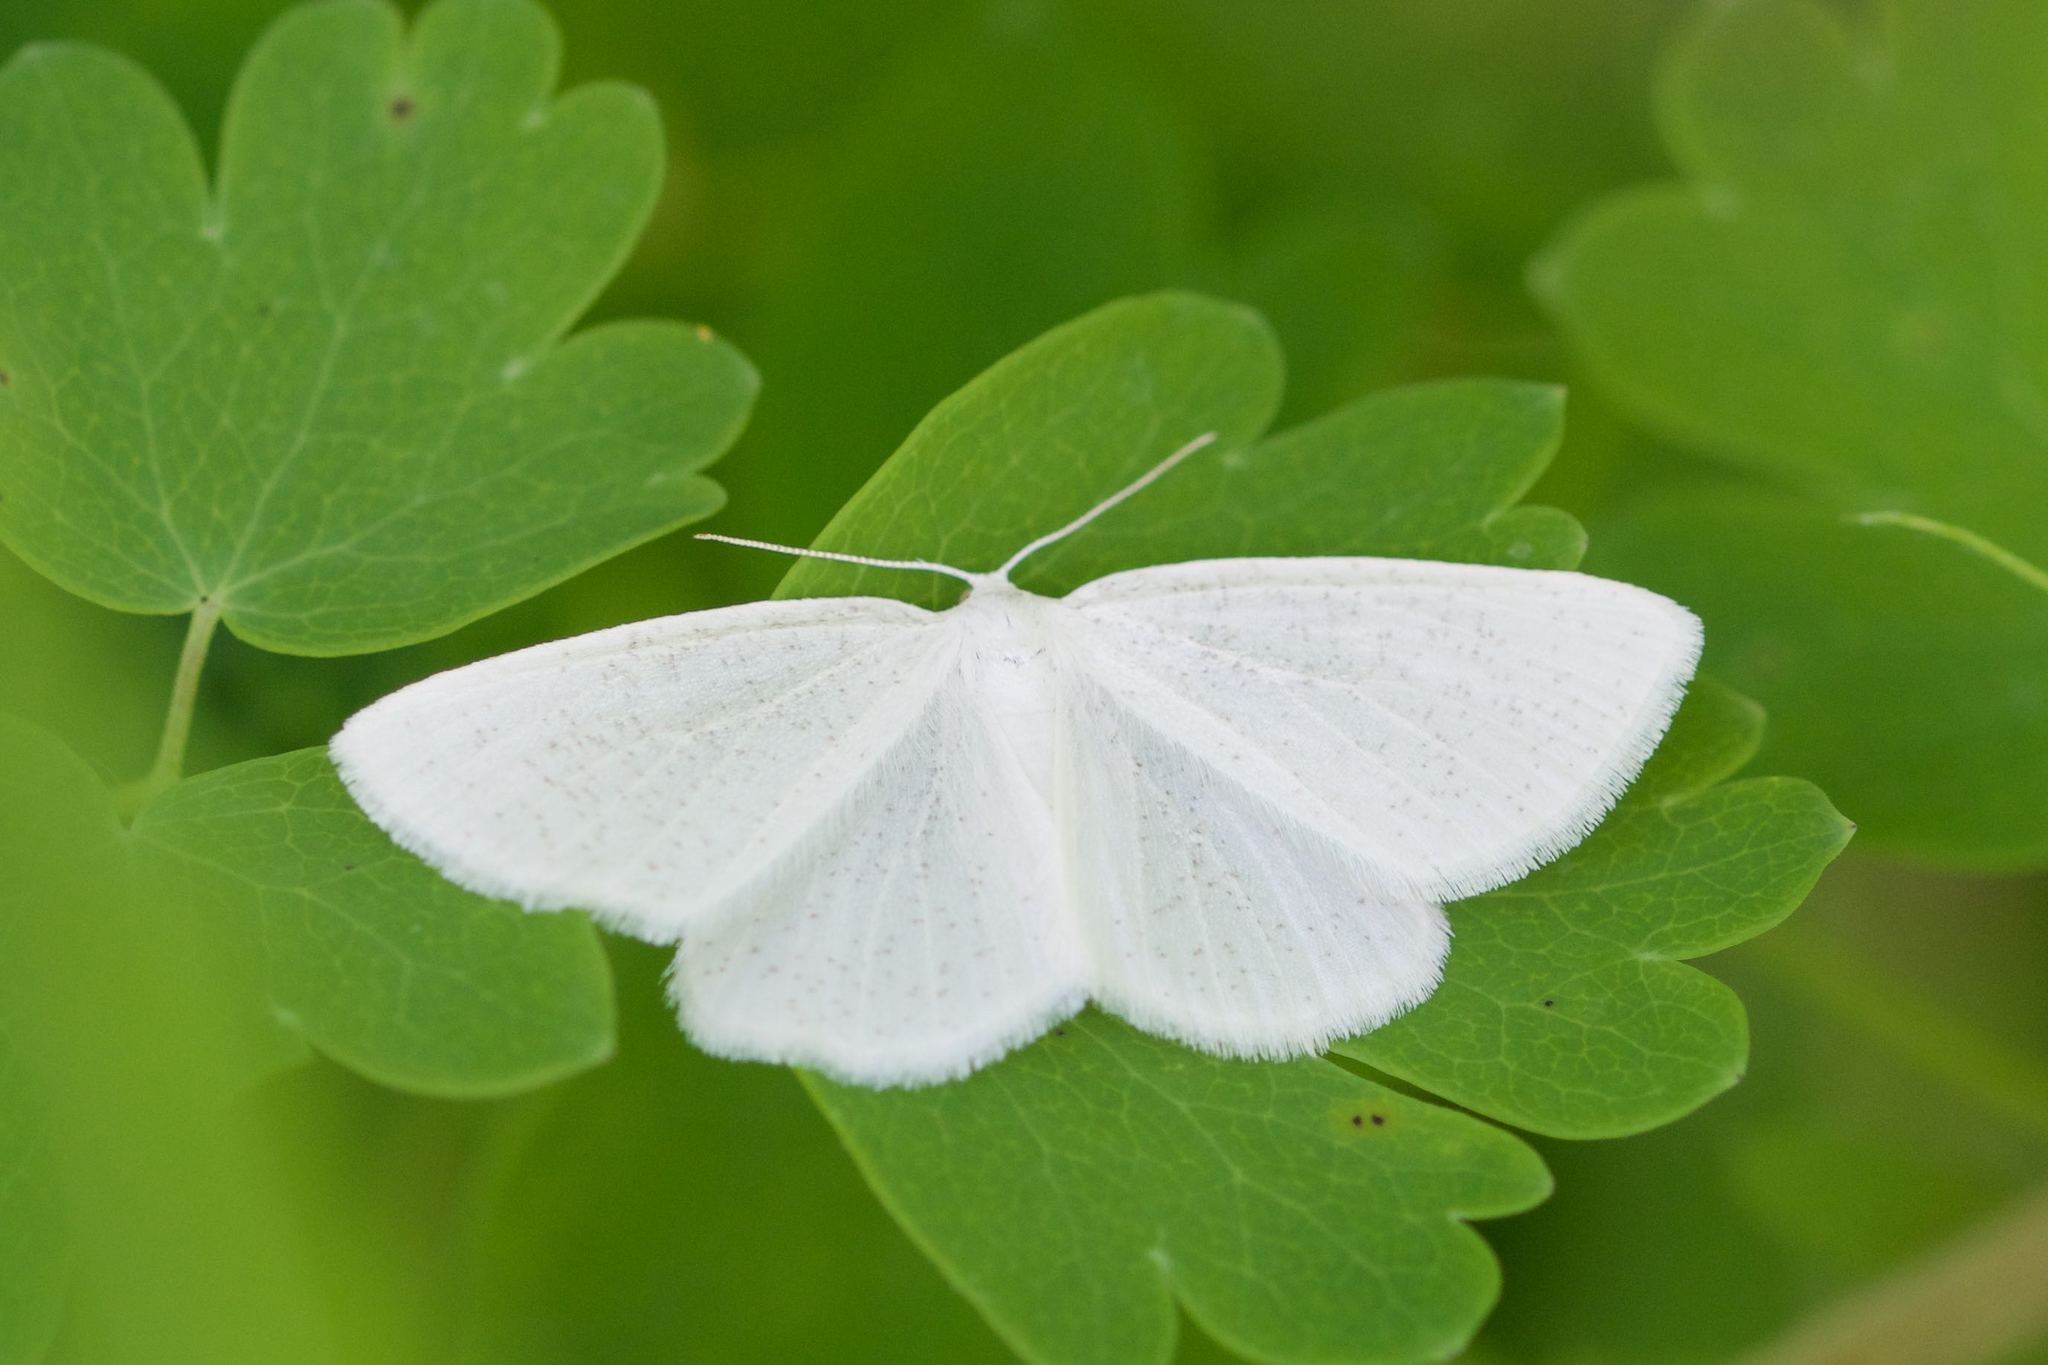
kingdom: Animalia
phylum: Arthropoda
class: Insecta
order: Lepidoptera
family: Geometridae
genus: Cabera
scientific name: Cabera variolaria
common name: Pink-striped willow spanworm
